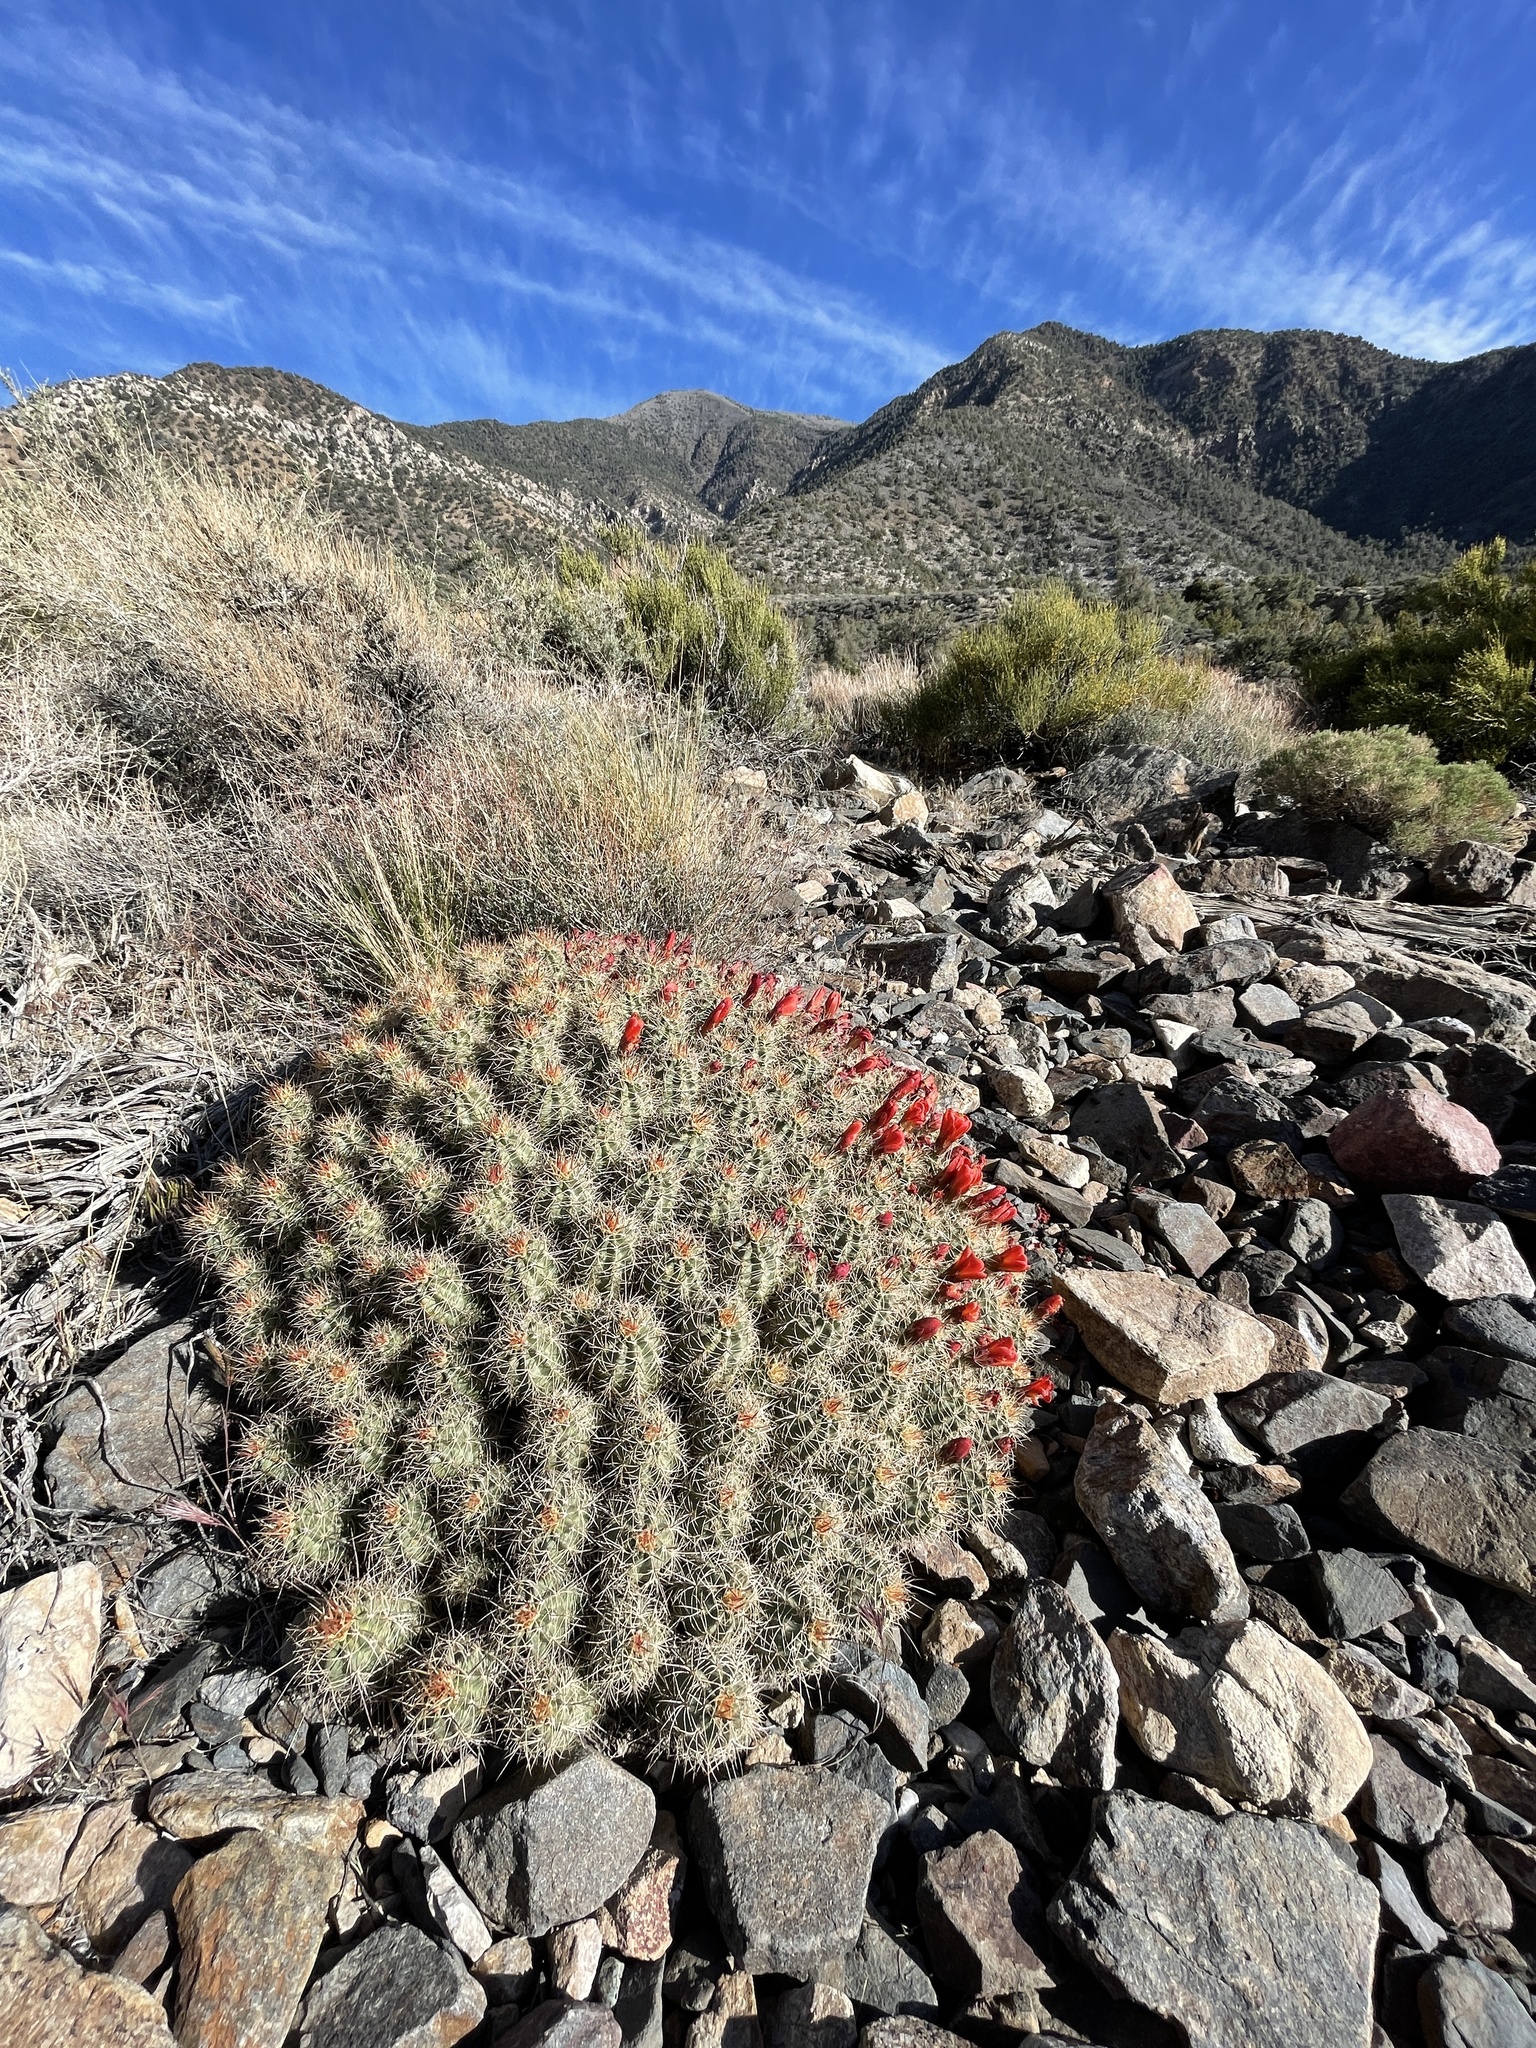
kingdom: Plantae
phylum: Tracheophyta
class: Magnoliopsida
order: Caryophyllales
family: Cactaceae
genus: Echinocereus
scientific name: Echinocereus triglochidiatus
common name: Claretcup hedgehog
